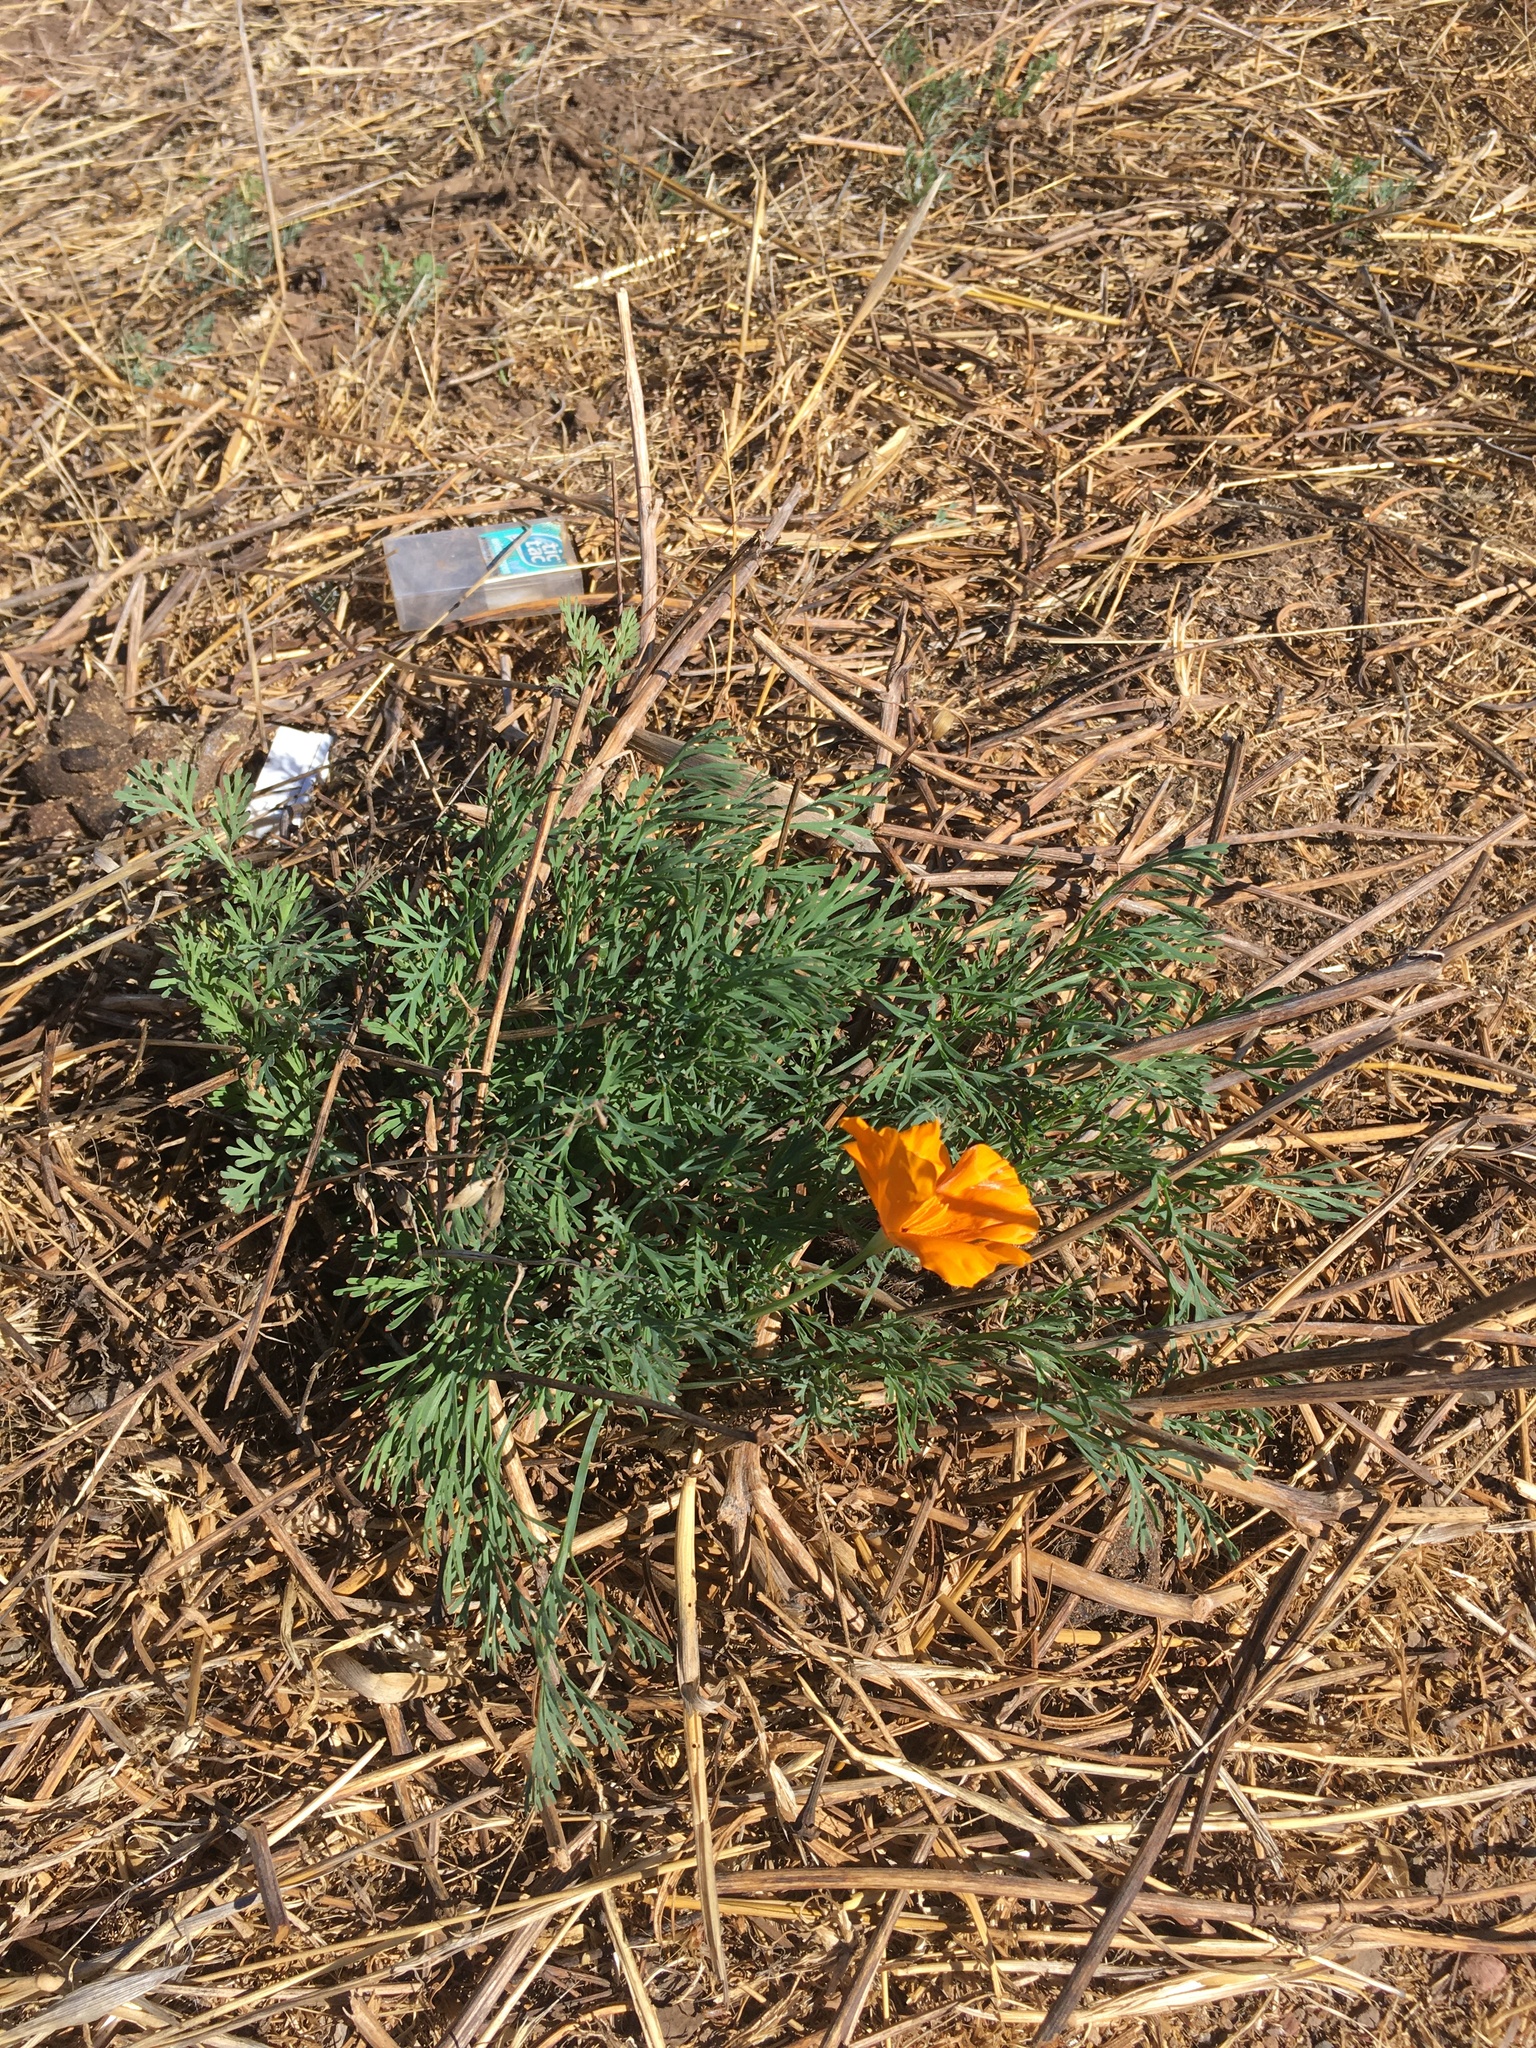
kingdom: Plantae
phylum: Tracheophyta
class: Magnoliopsida
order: Ranunculales
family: Papaveraceae
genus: Eschscholzia
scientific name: Eschscholzia californica
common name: California poppy
